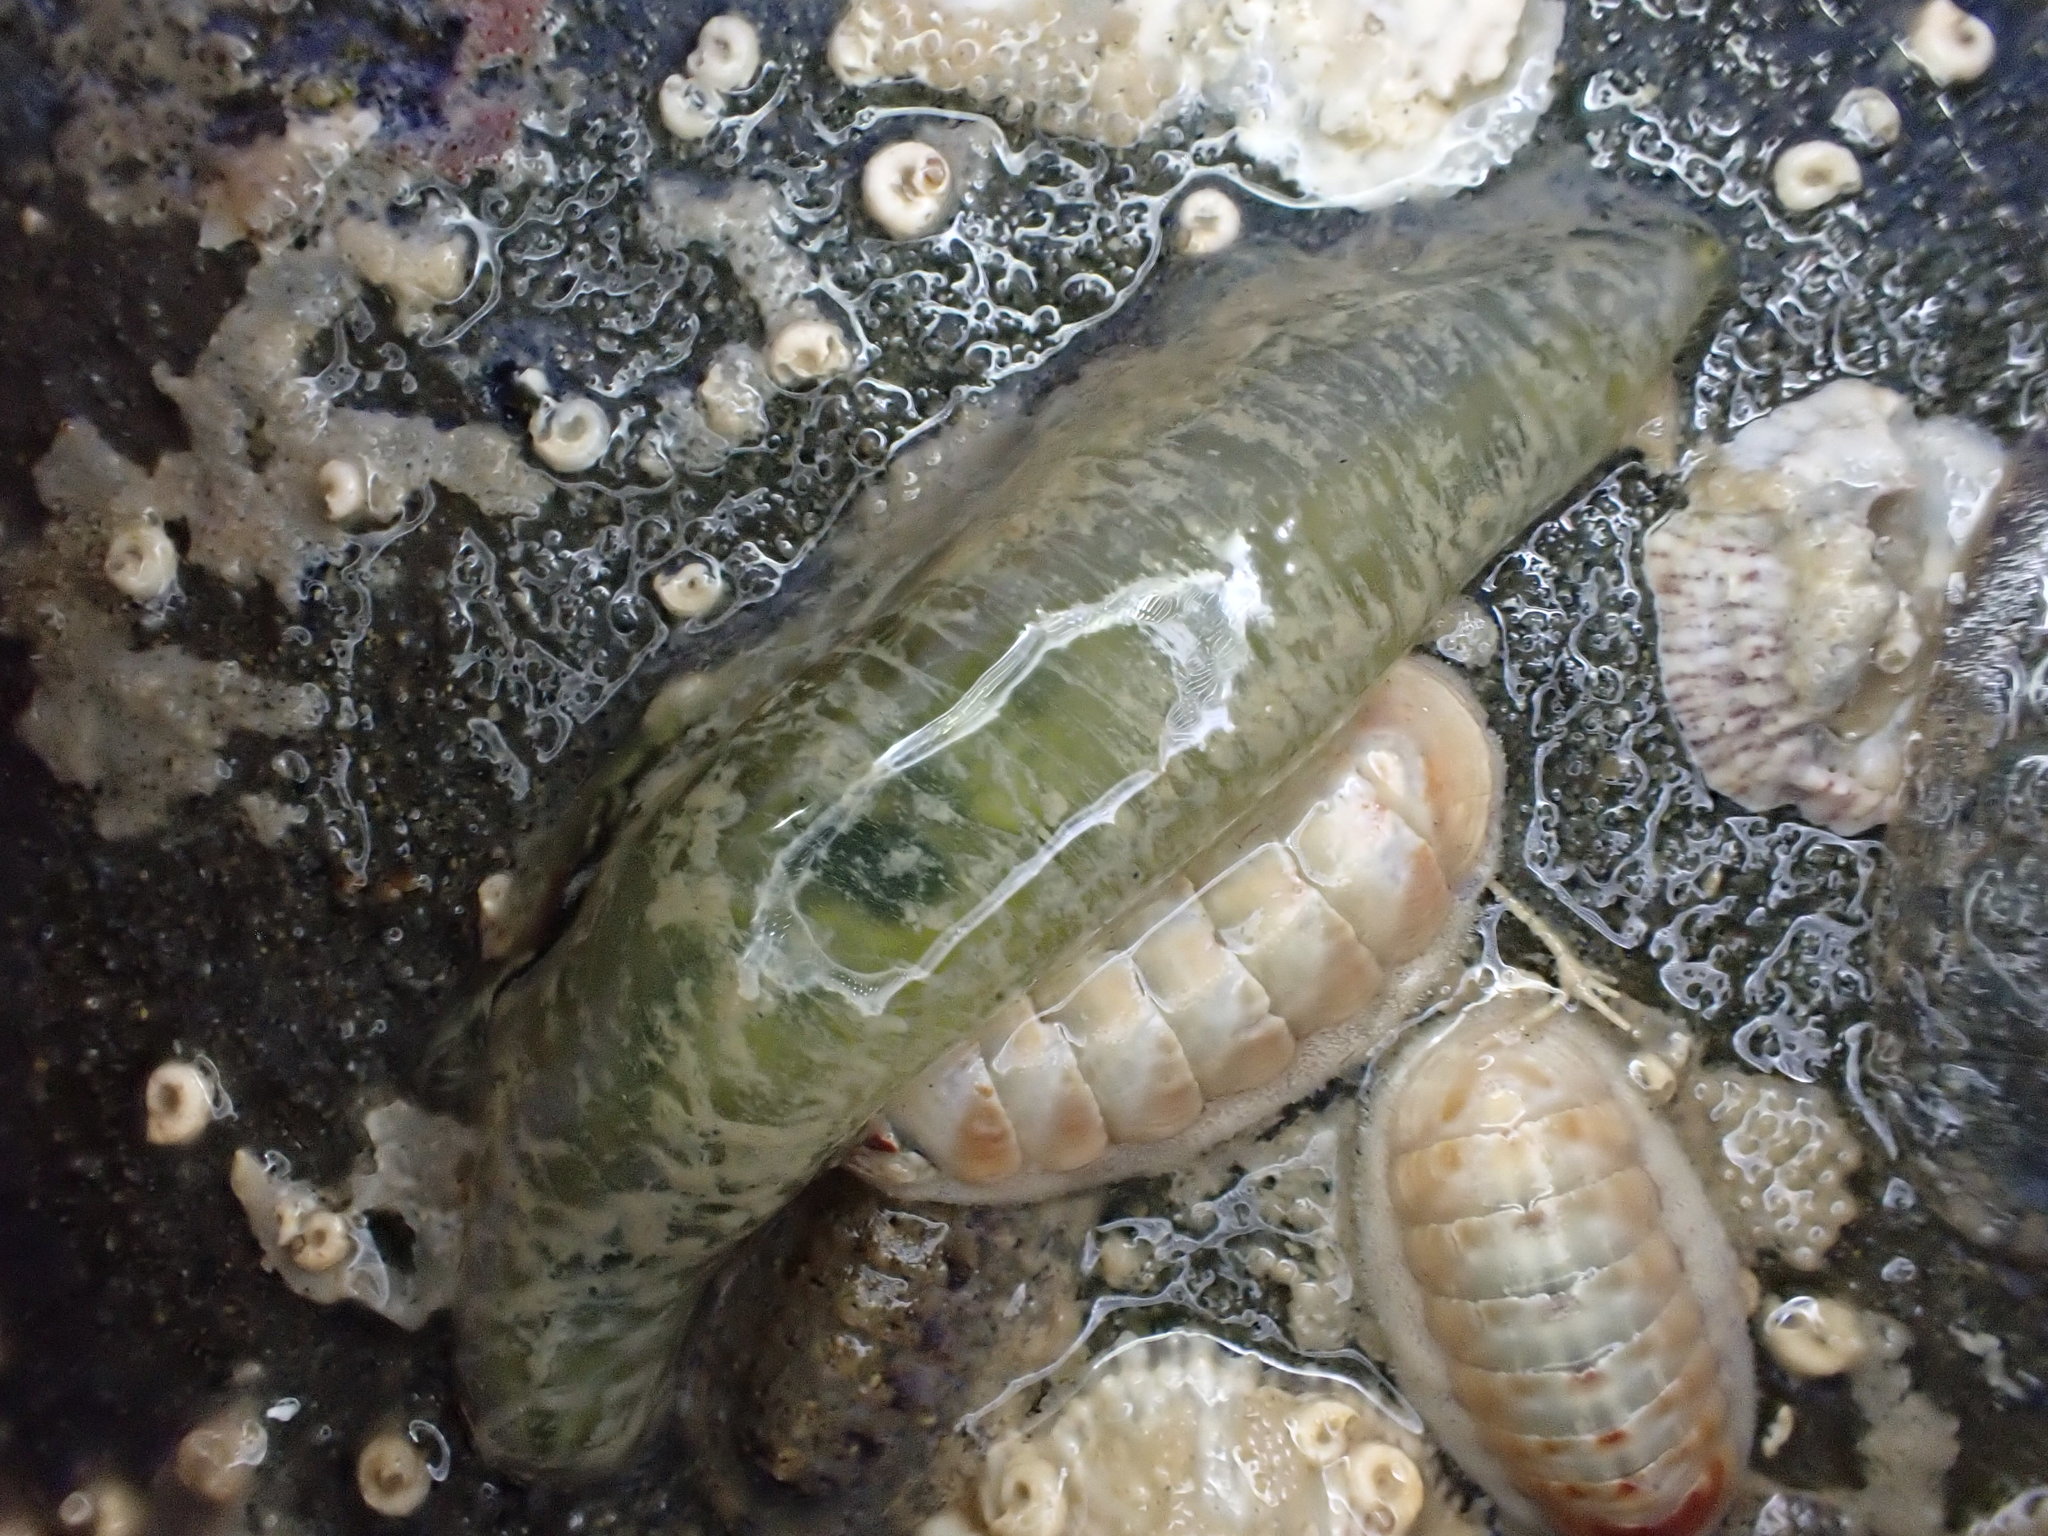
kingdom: Animalia
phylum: Annelida
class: Polychaeta
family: Flabelligeridae
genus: Flabelligera
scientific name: Flabelligera bicolor
